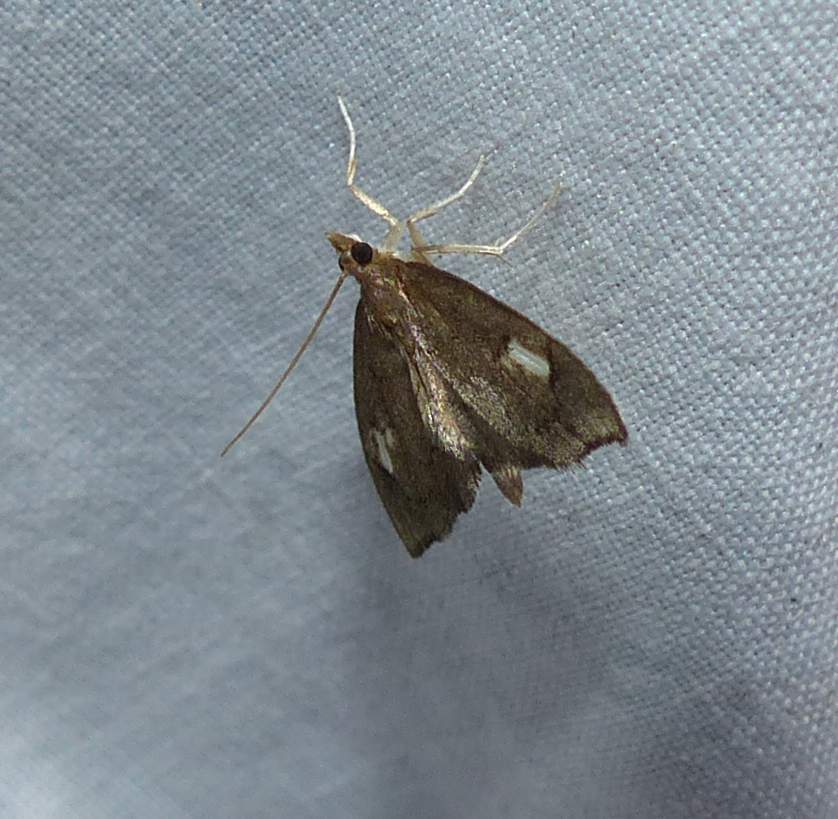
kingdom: Animalia
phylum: Arthropoda
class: Insecta
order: Lepidoptera
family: Crambidae
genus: Perispasta
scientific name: Perispasta caeculalis
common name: Titian peale's moth
